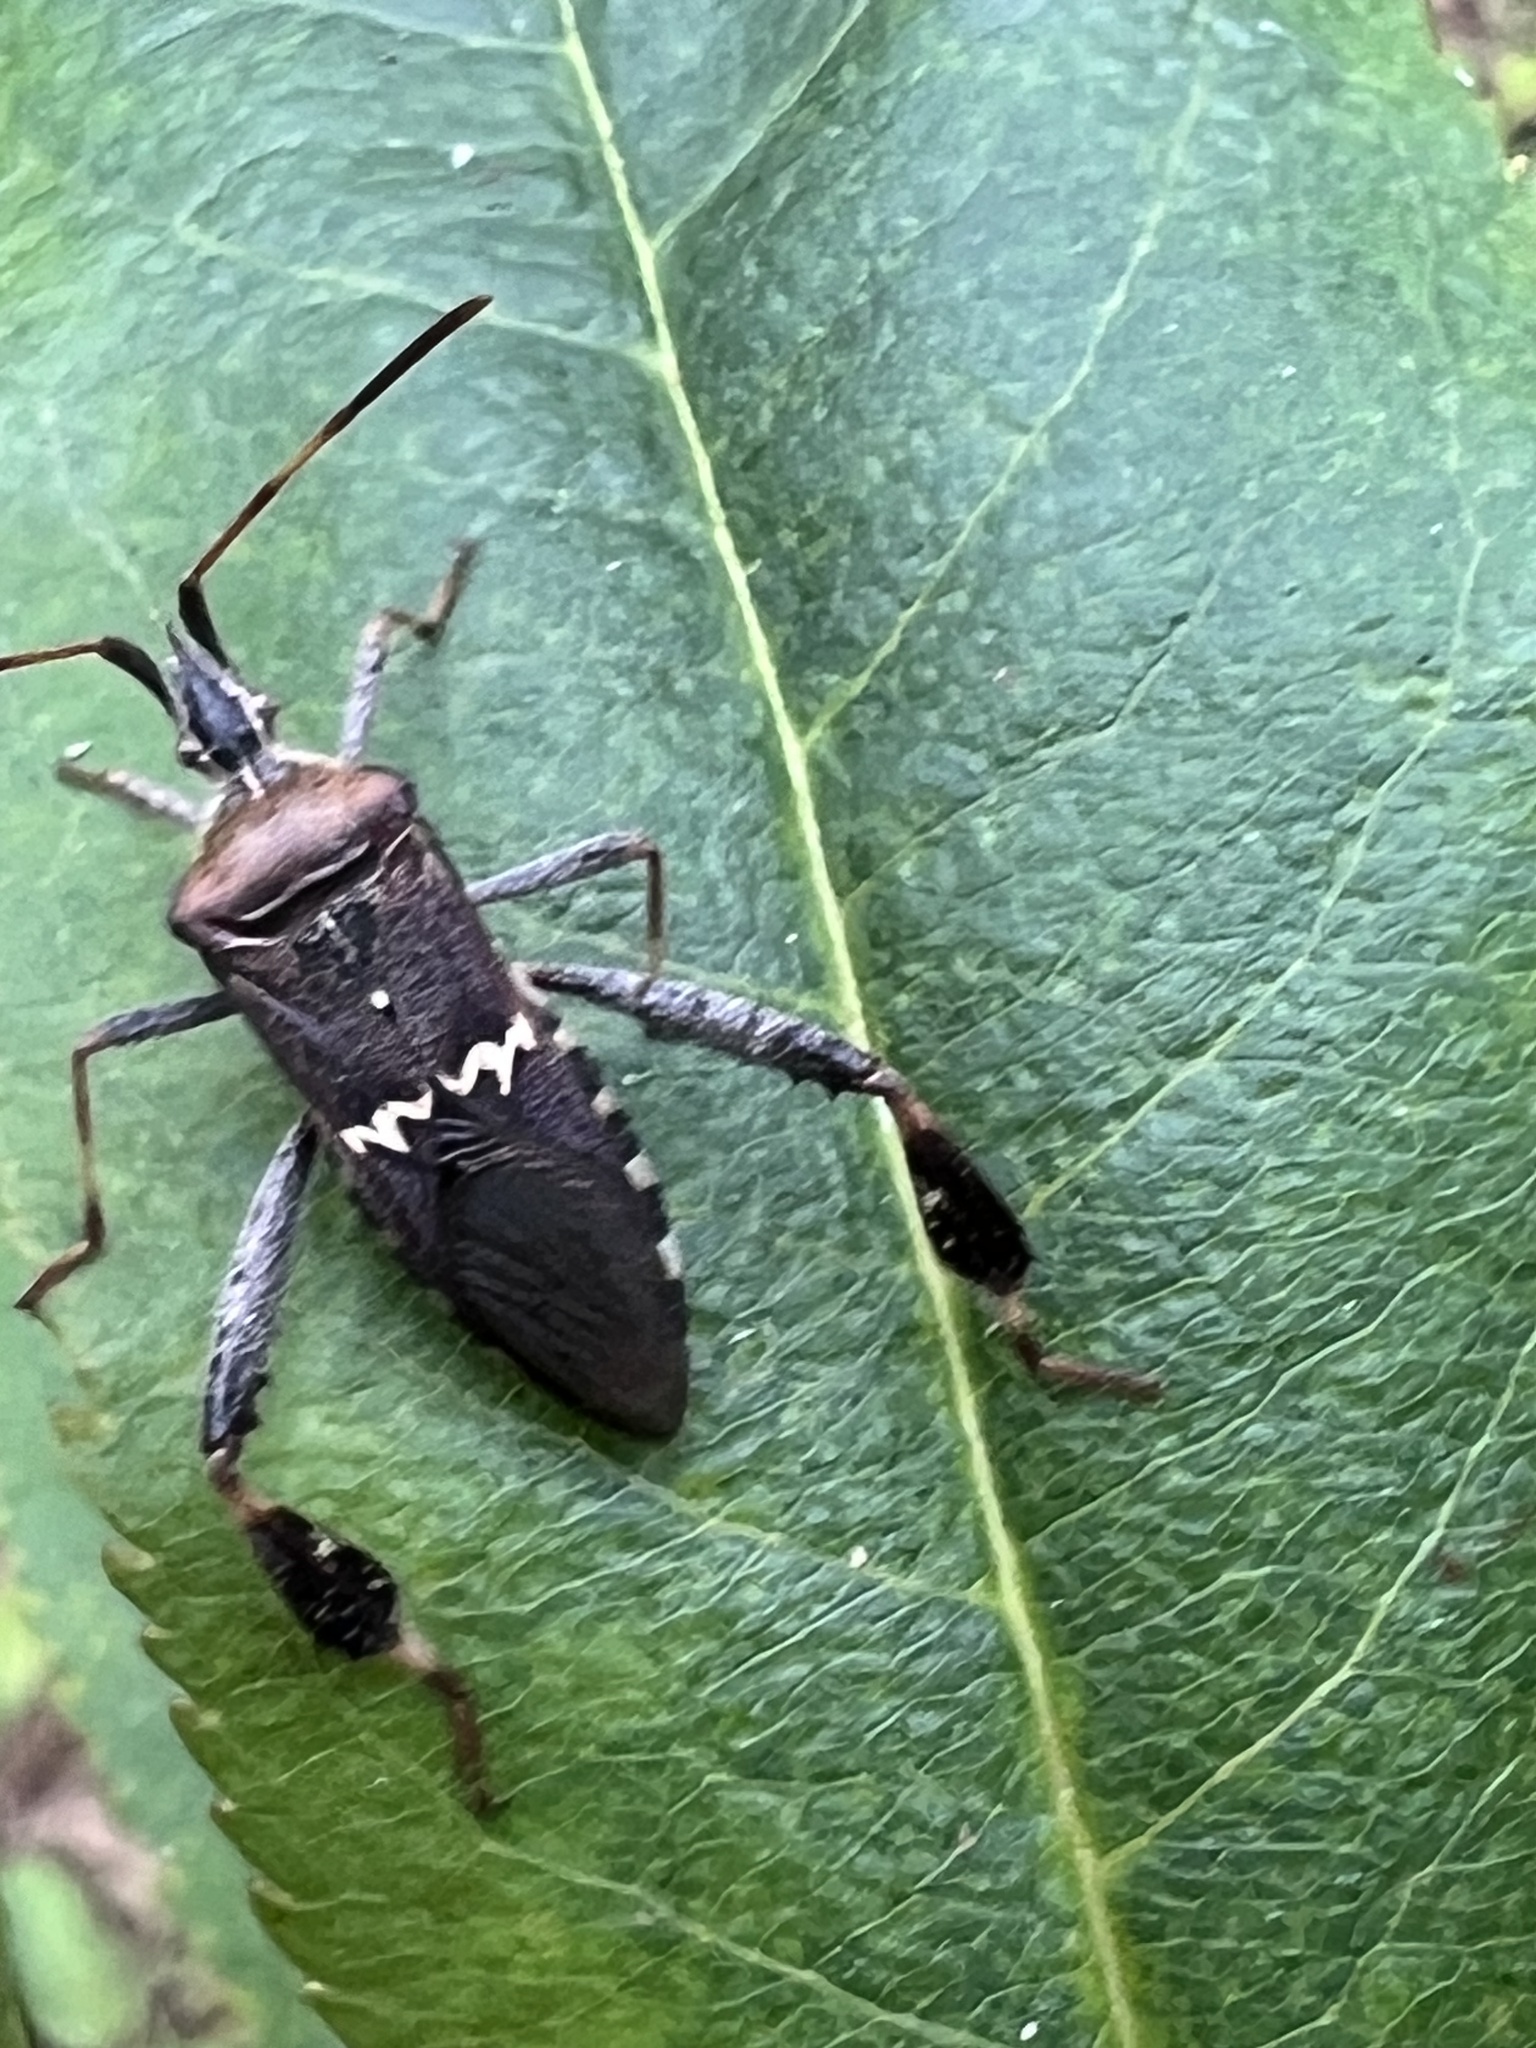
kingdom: Animalia
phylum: Arthropoda
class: Insecta
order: Hemiptera
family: Coreidae
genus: Leptoglossus
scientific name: Leptoglossus clypealis
